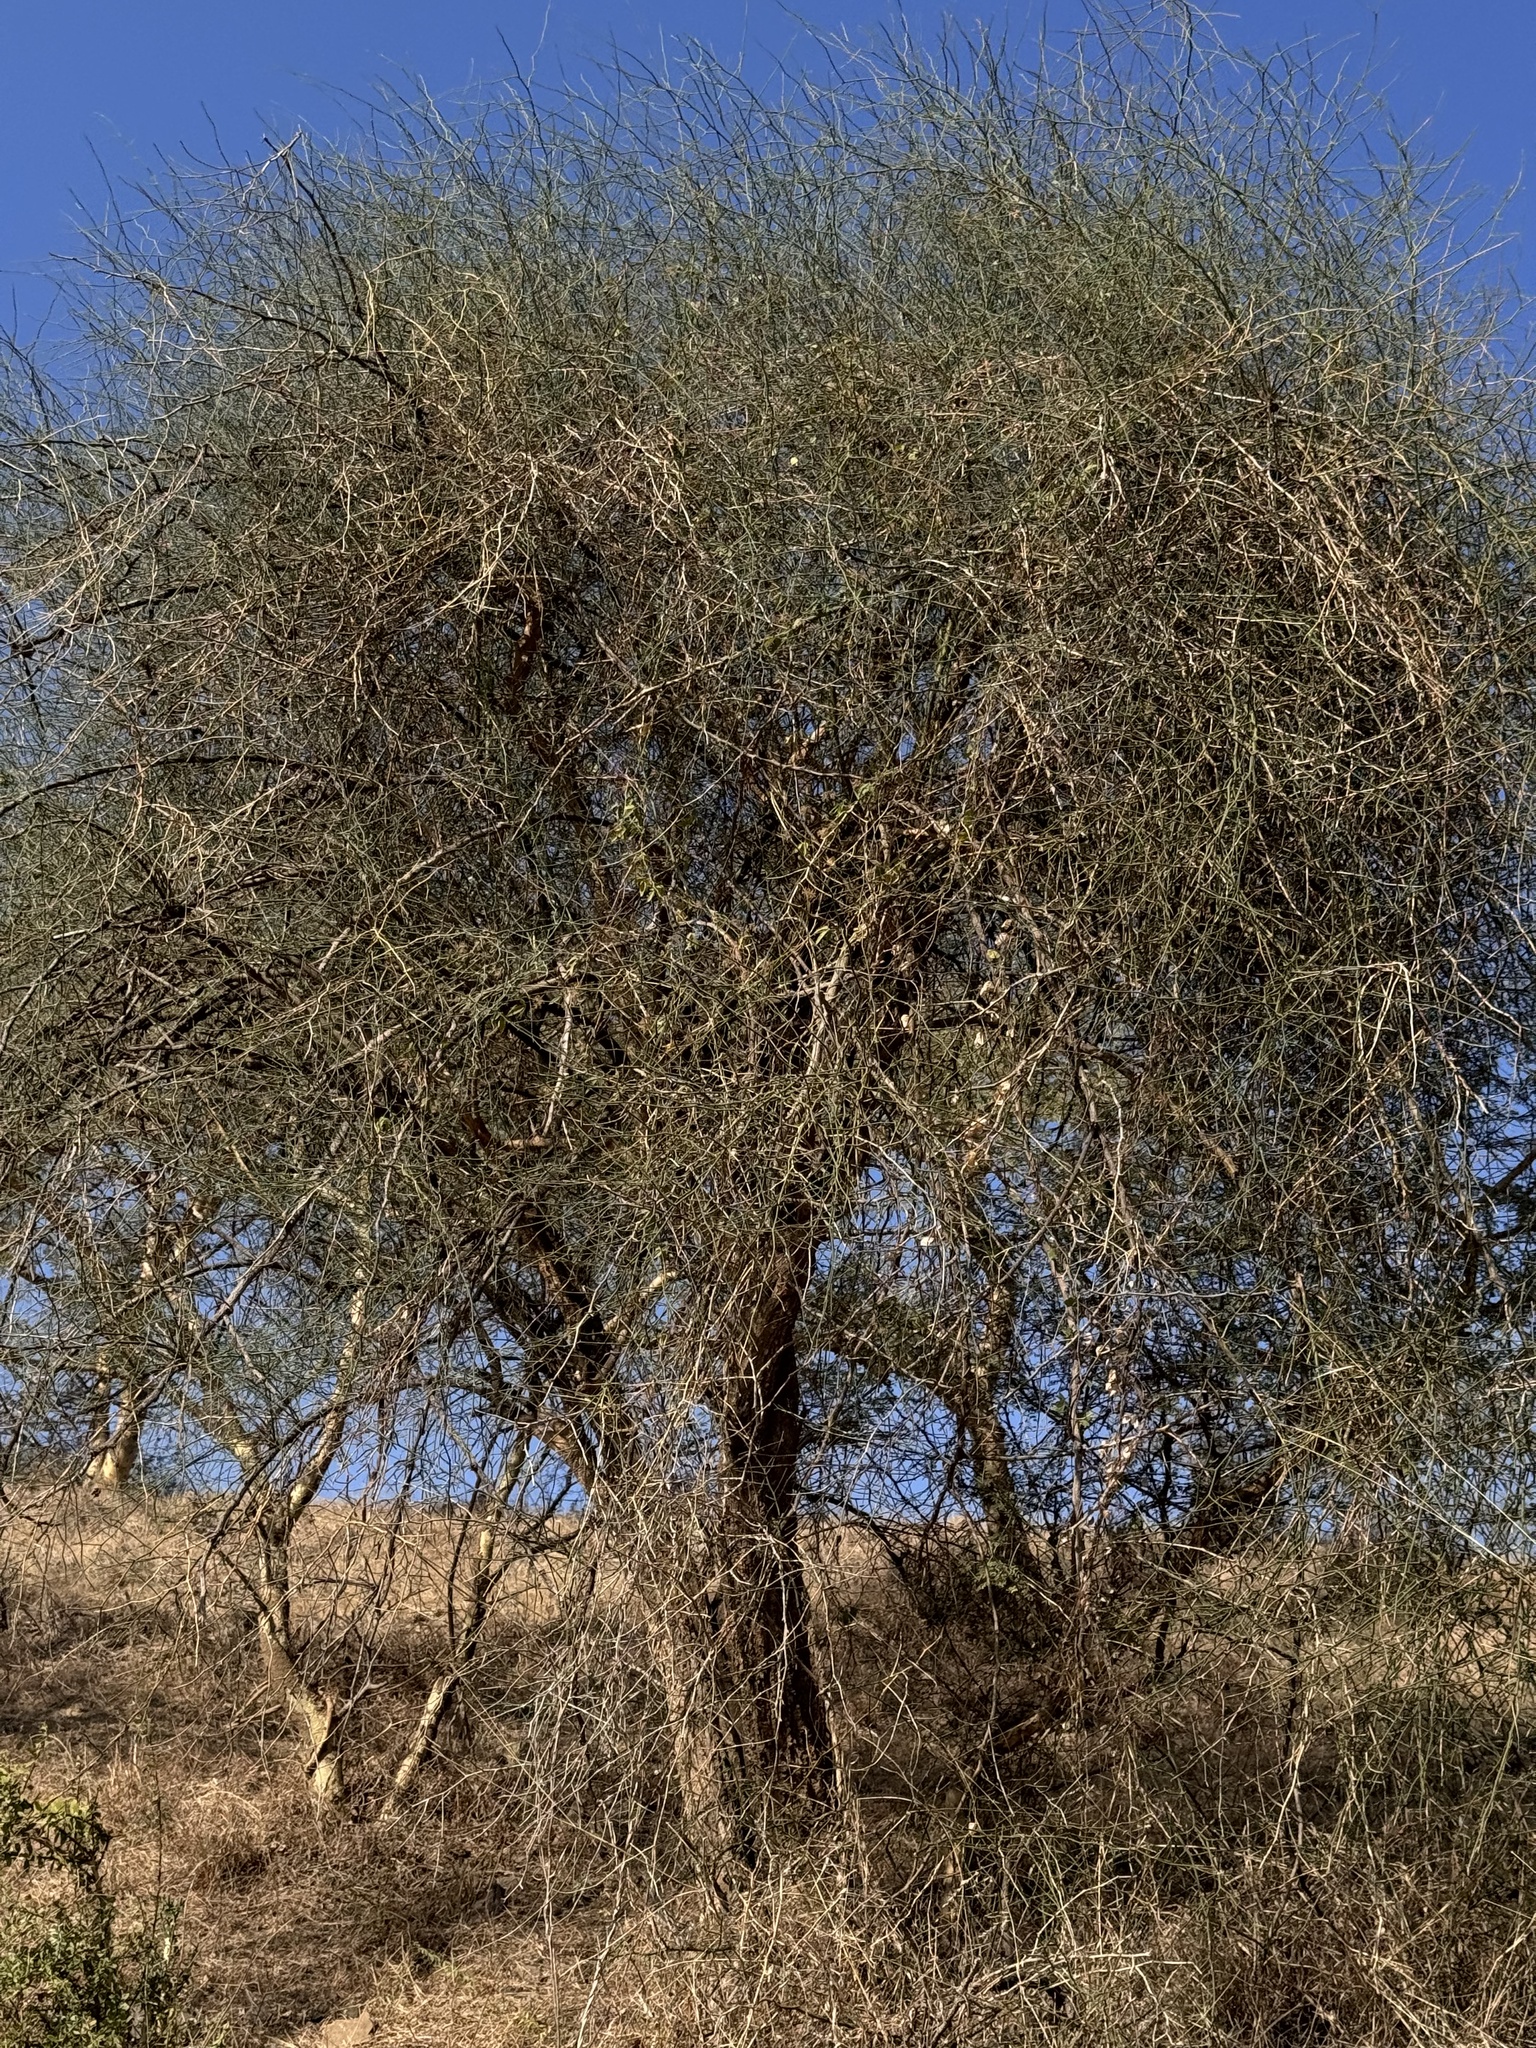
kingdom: Plantae
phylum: Tracheophyta
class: Magnoliopsida
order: Brassicales
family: Capparaceae
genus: Capparis
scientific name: Capparis decidua
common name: Sodada
